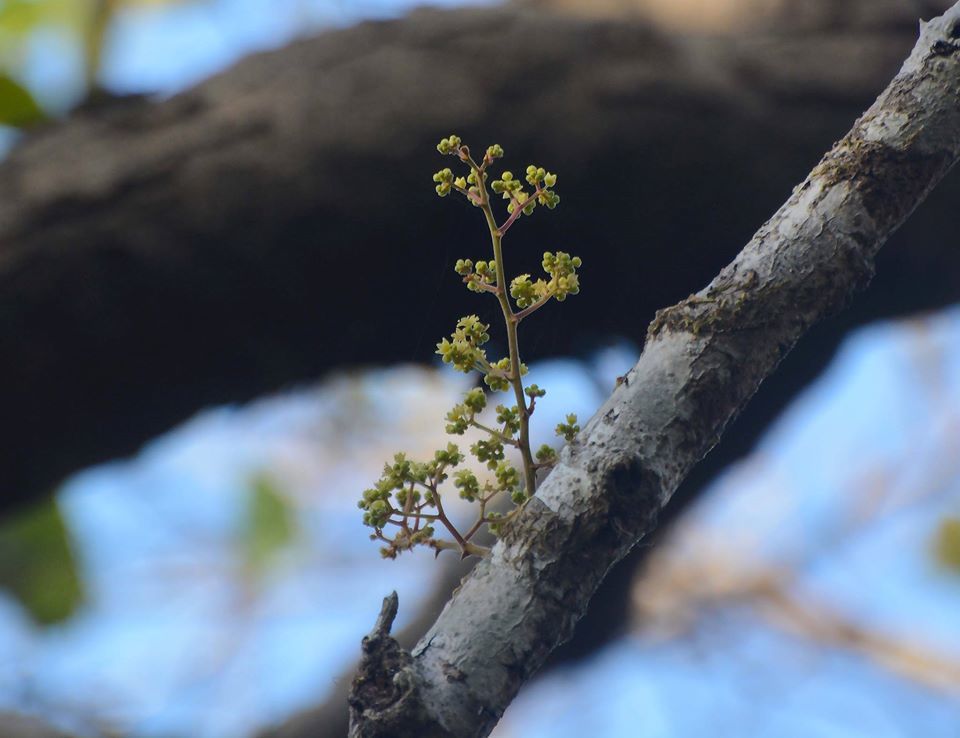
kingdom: Plantae
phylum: Tracheophyta
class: Magnoliopsida
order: Rosales
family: Rhamnaceae
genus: Ziziphus
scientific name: Ziziphus rugosa
